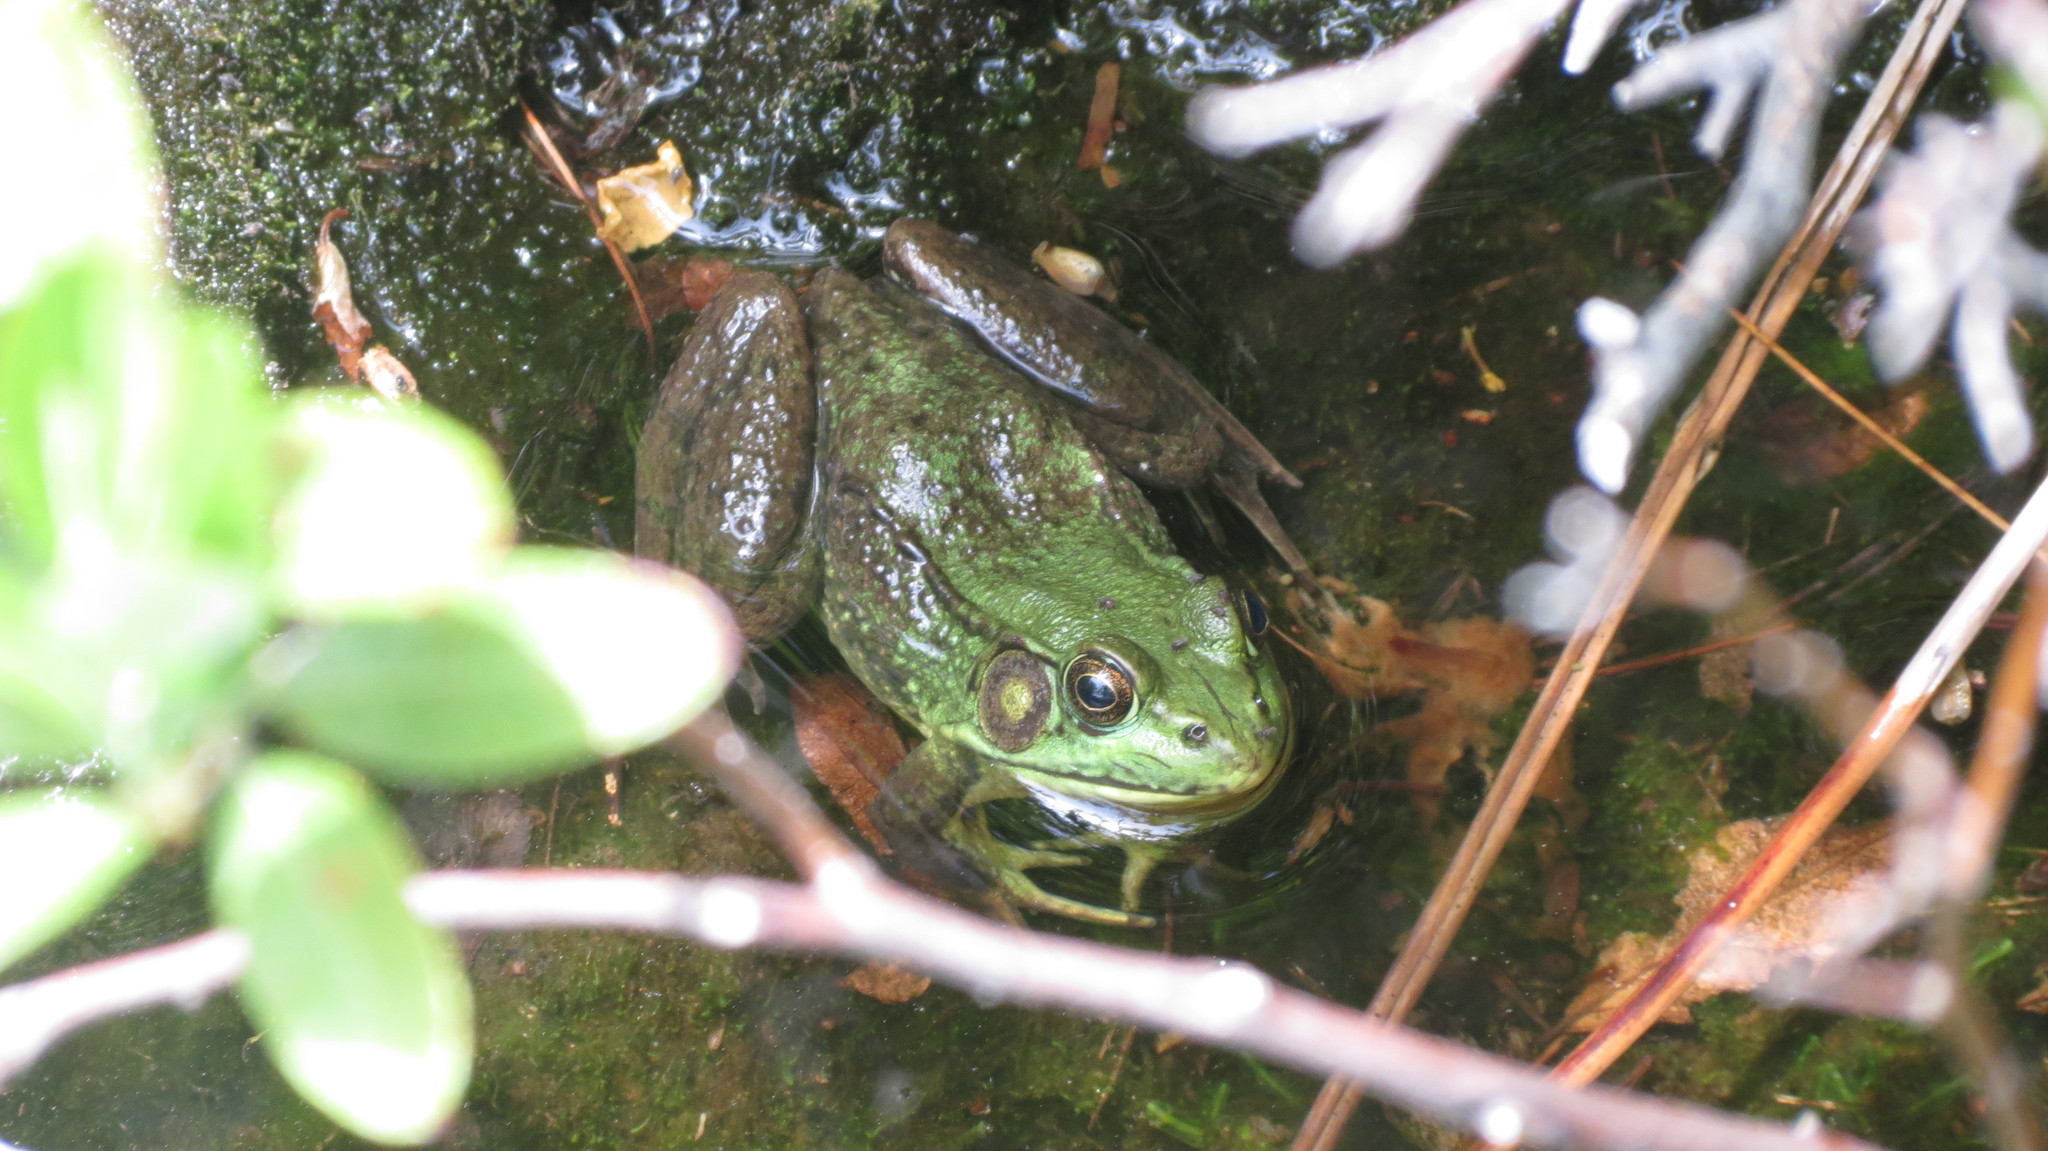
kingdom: Animalia
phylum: Chordata
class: Amphibia
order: Anura
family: Ranidae
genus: Lithobates
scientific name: Lithobates clamitans
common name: Green frog
